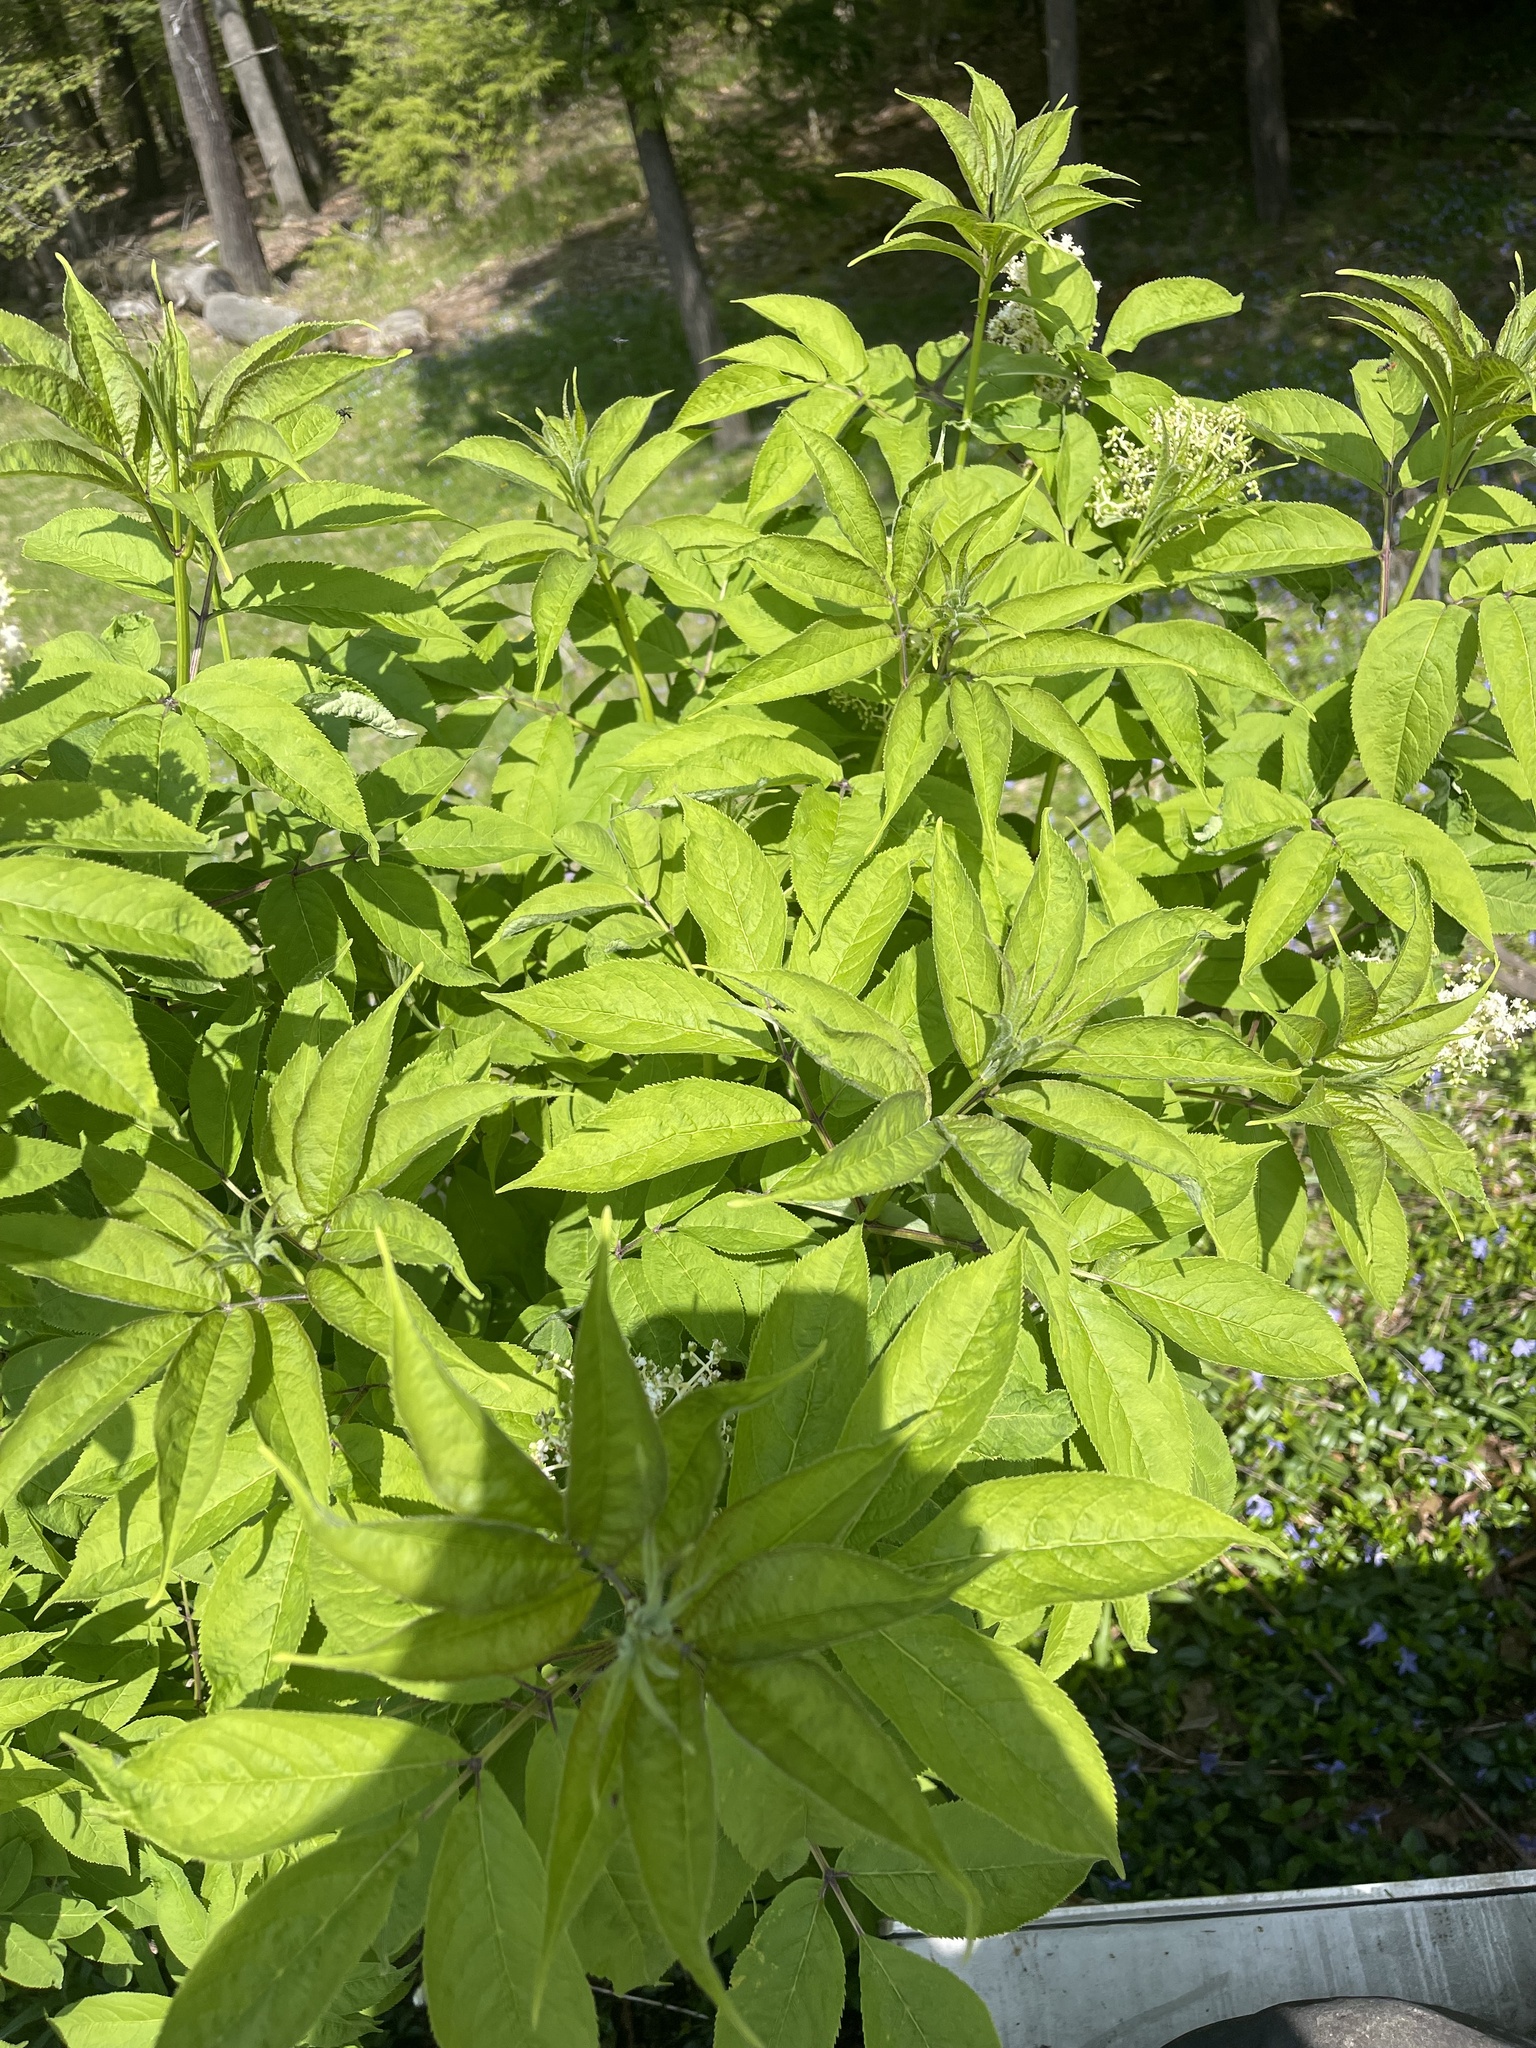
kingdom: Plantae
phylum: Tracheophyta
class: Magnoliopsida
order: Dipsacales
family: Viburnaceae
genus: Sambucus
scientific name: Sambucus racemosa
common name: Red-berried elder
